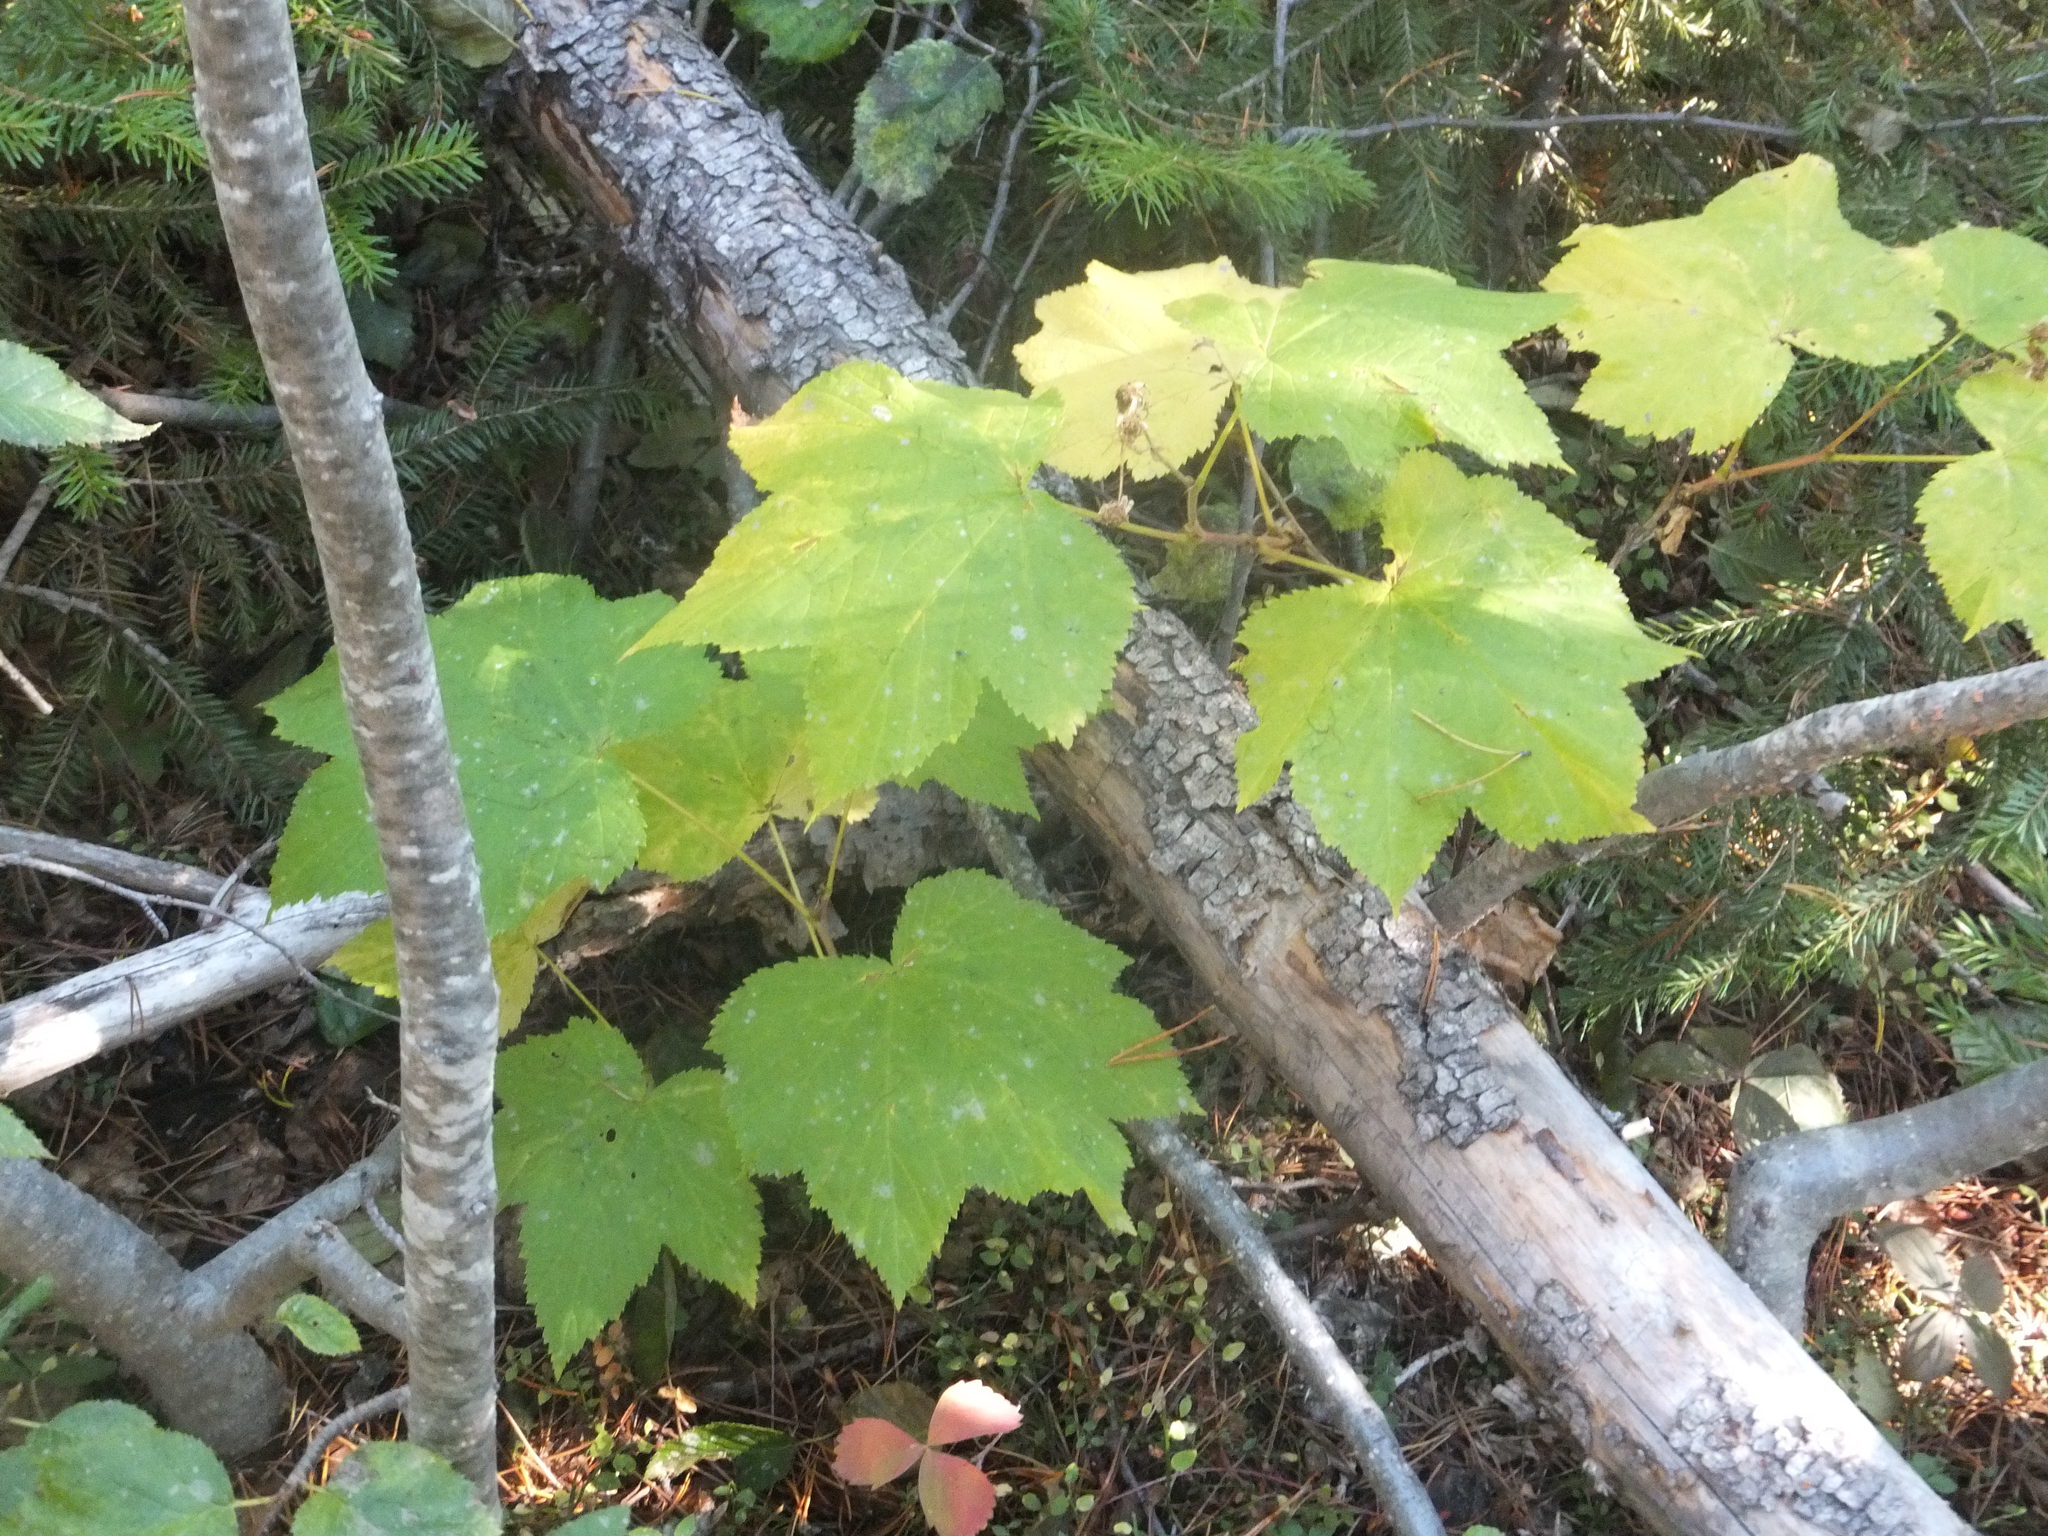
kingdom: Plantae
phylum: Tracheophyta
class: Magnoliopsida
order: Rosales
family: Rosaceae
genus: Rubus
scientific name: Rubus parviflorus
